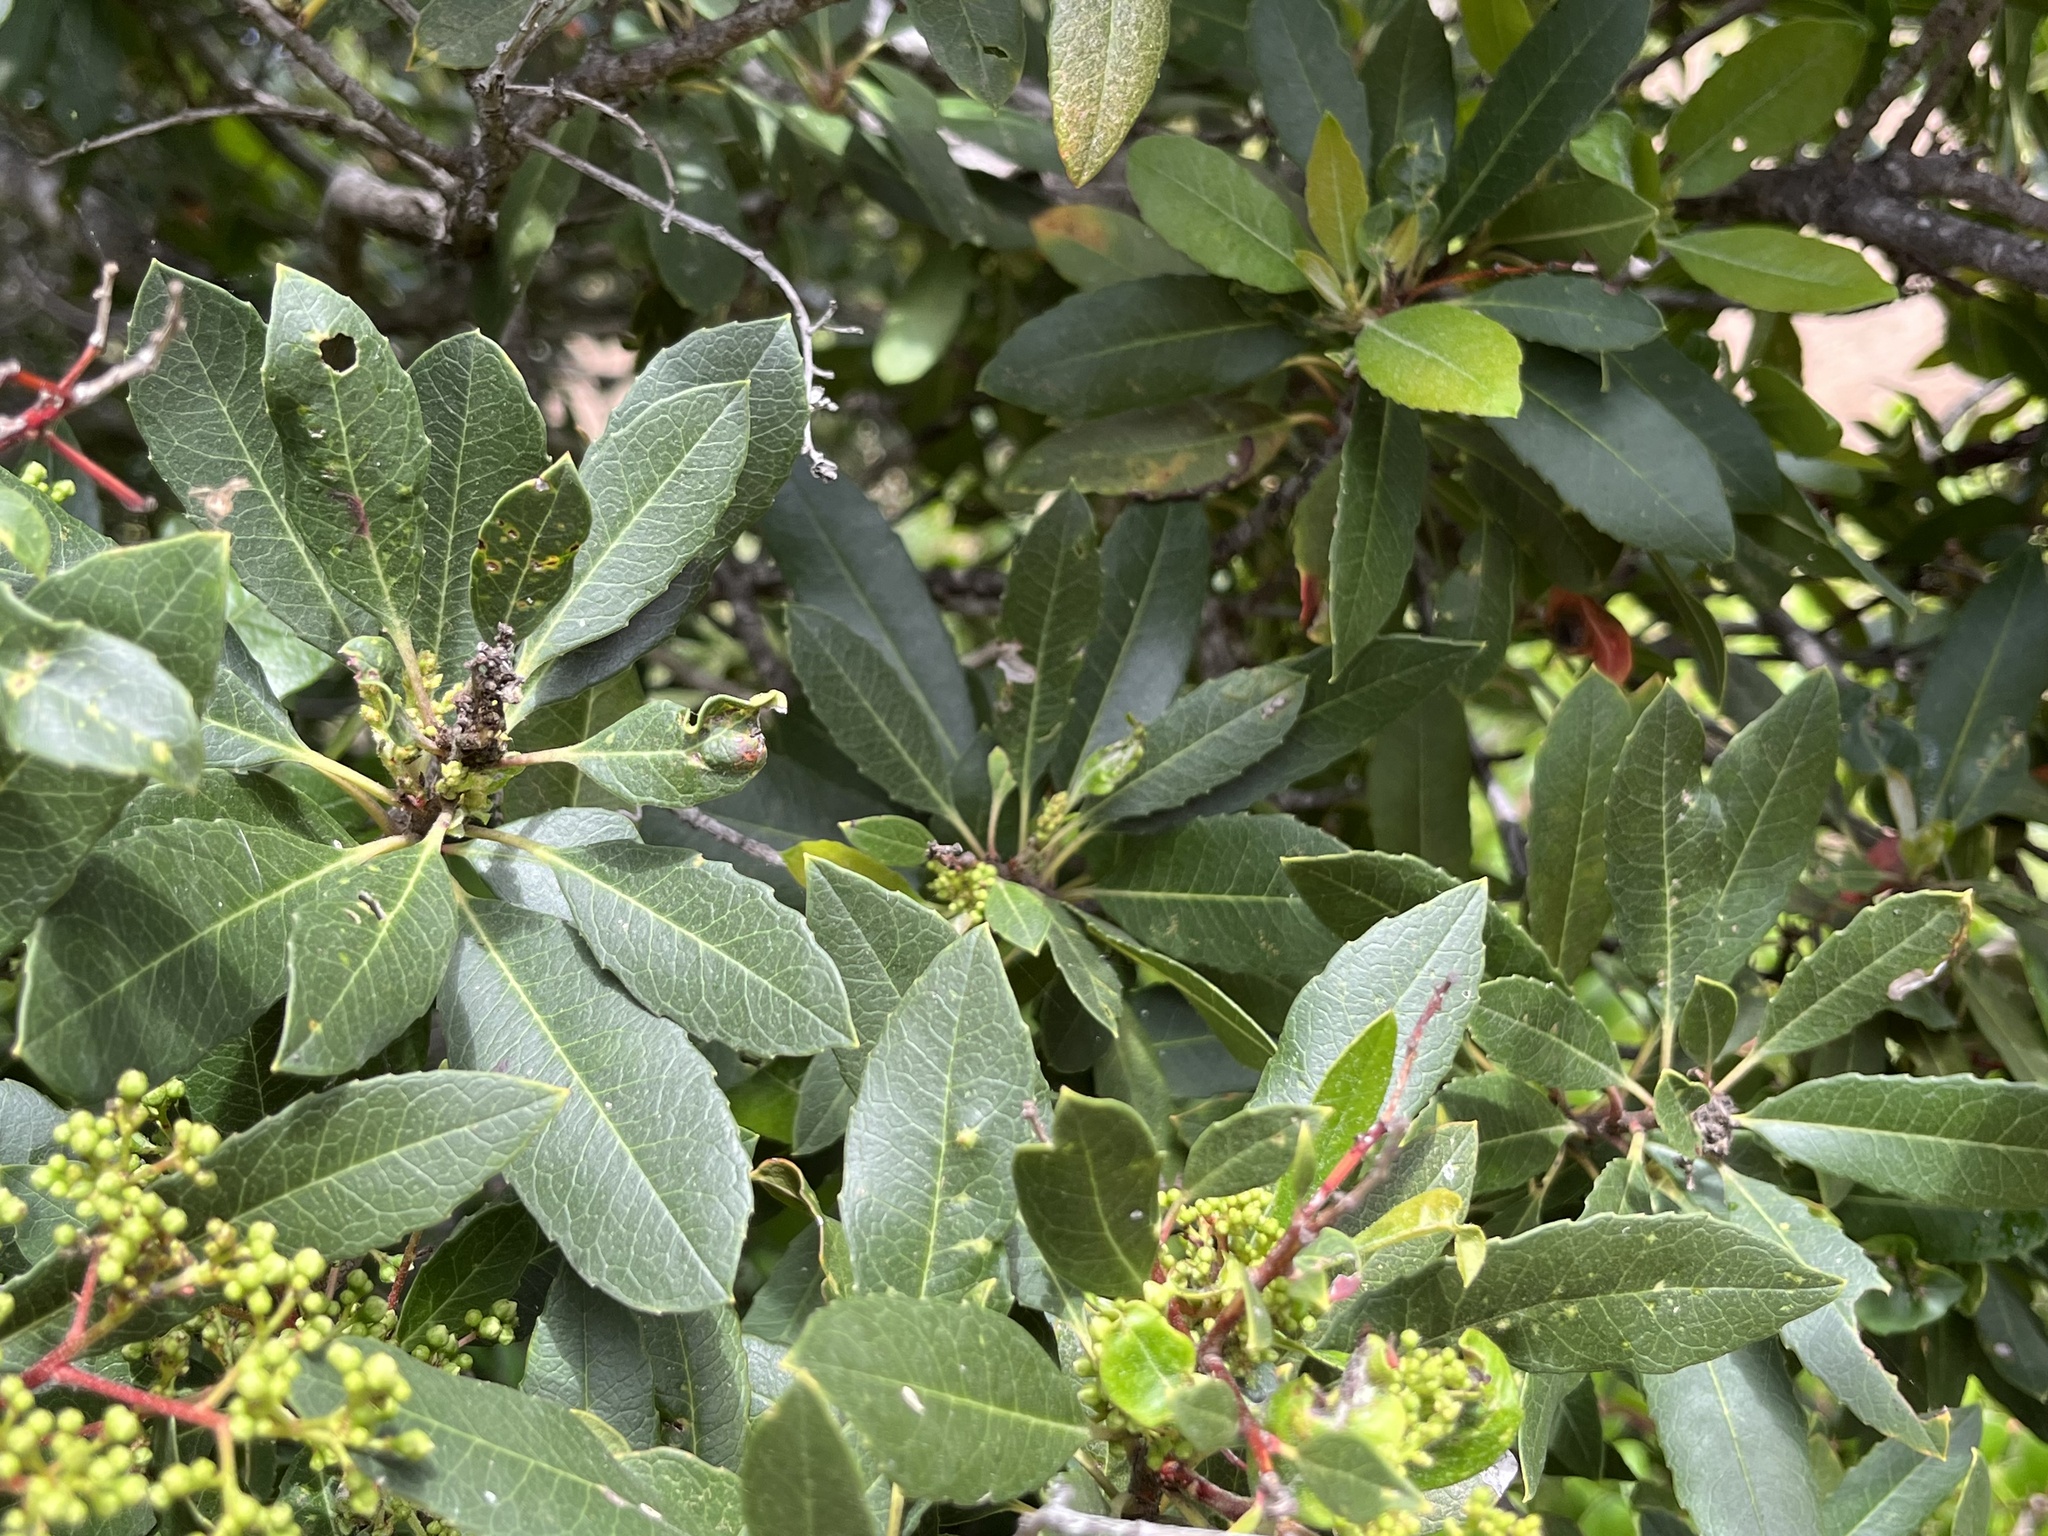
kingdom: Plantae
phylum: Tracheophyta
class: Magnoliopsida
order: Rosales
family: Rosaceae
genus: Heteromeles
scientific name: Heteromeles arbutifolia
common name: California-holly
